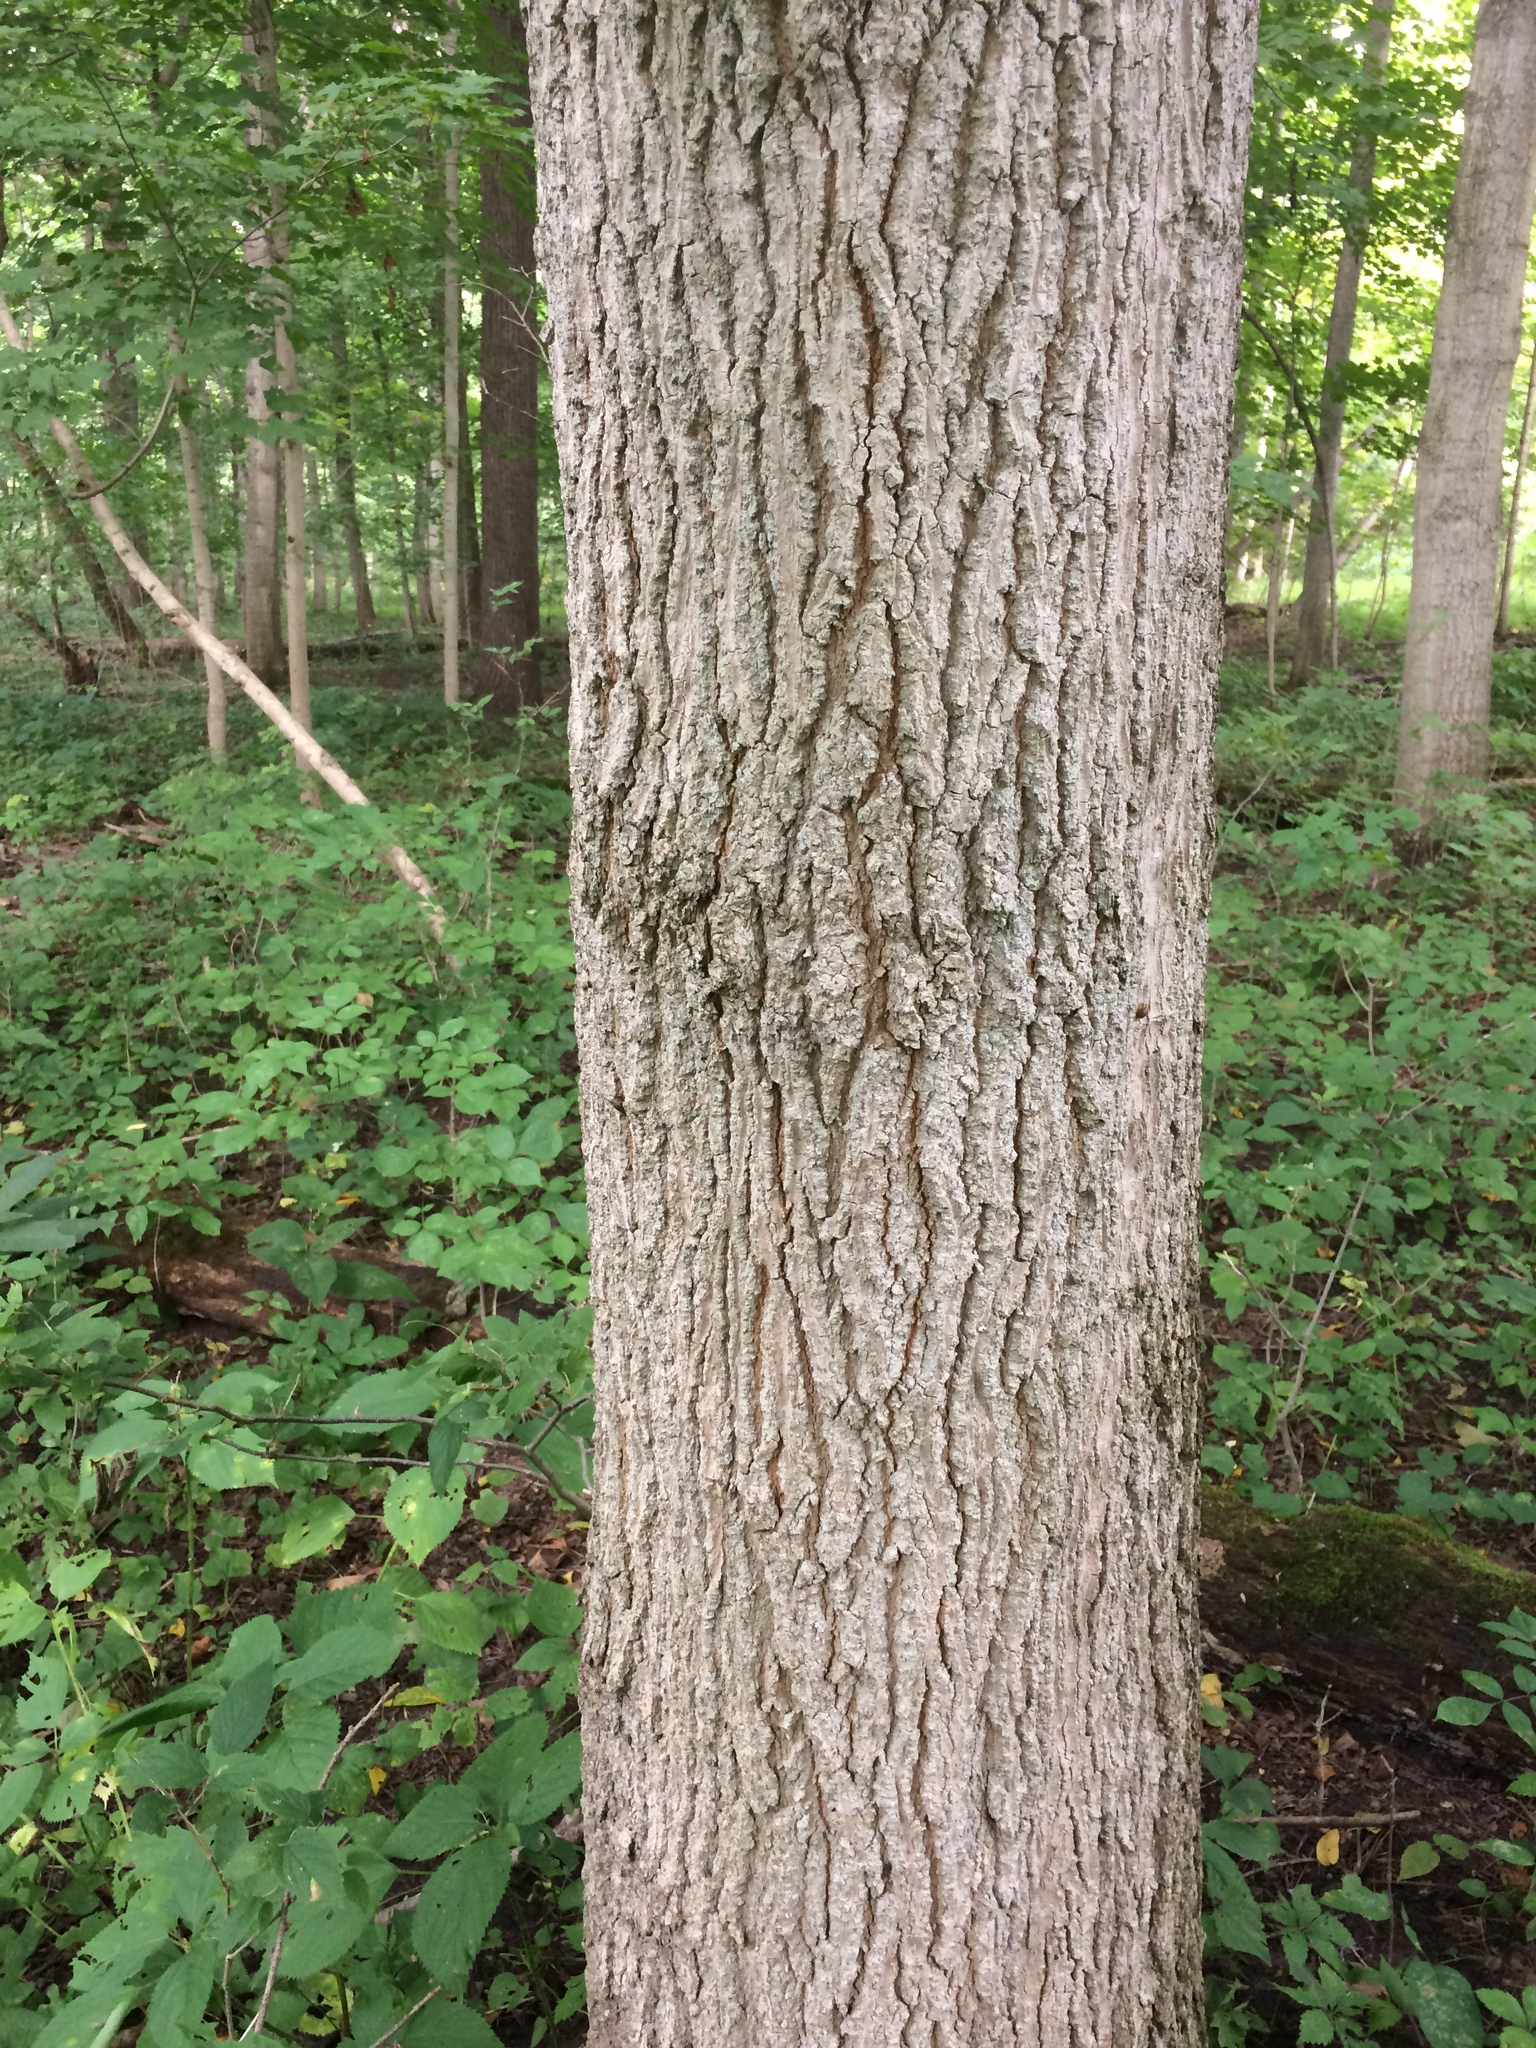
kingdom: Plantae
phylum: Tracheophyta
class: Magnoliopsida
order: Sapindales
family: Sapindaceae
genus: Acer
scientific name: Acer nigrum
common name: Black maple
